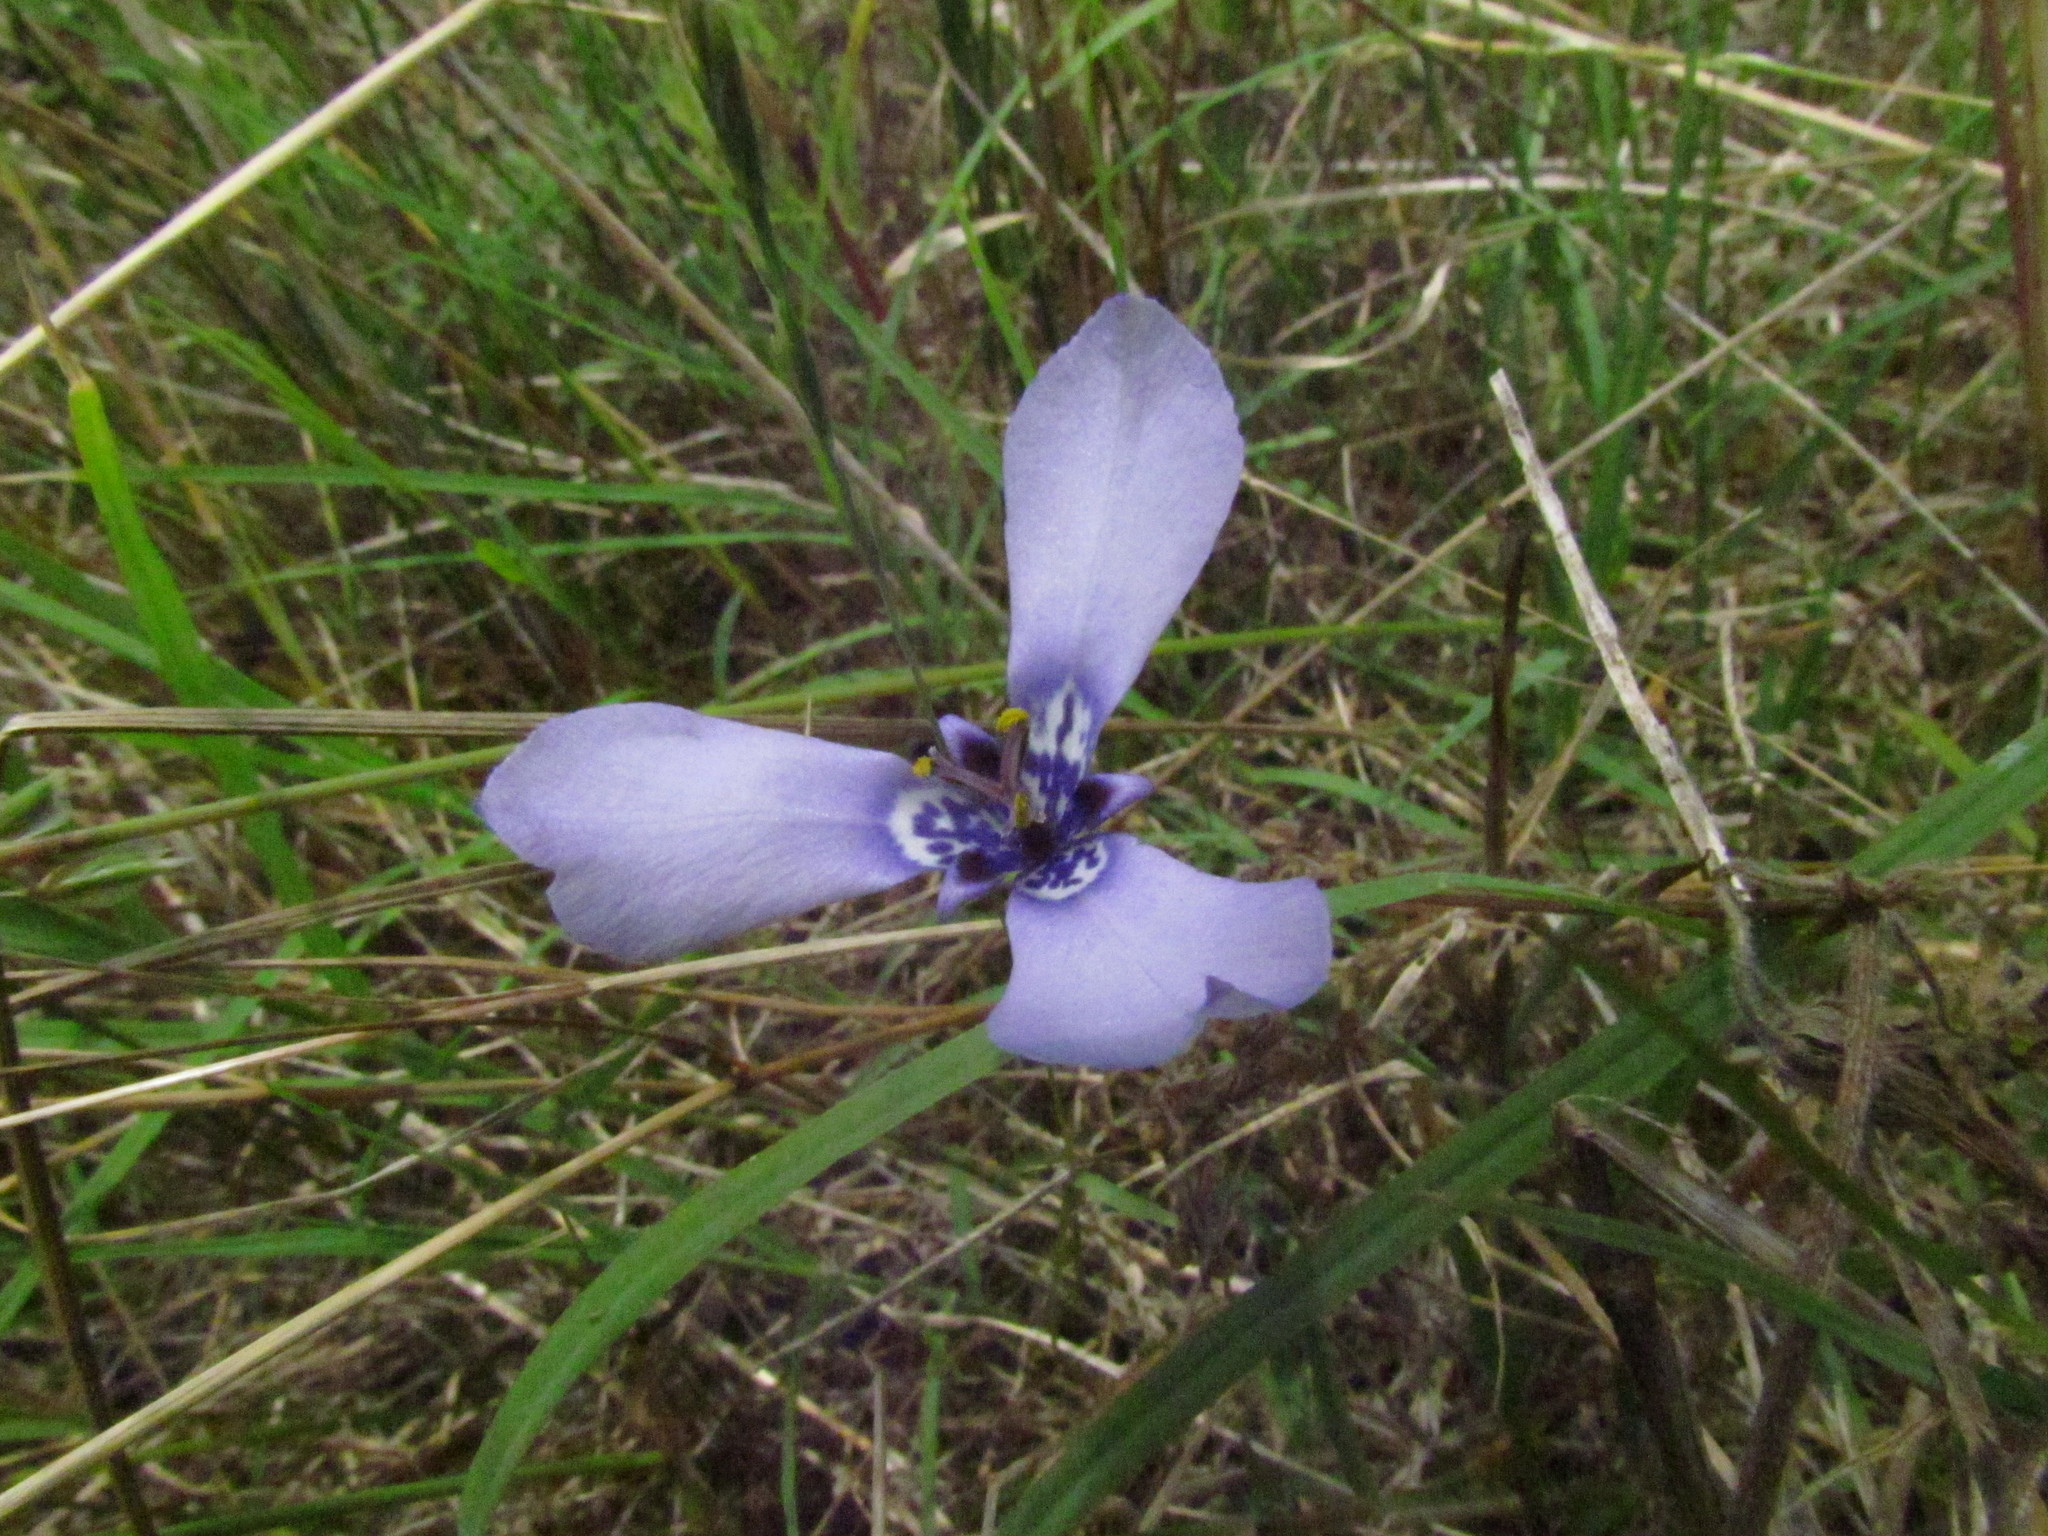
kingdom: Plantae
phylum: Tracheophyta
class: Liliopsida
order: Asparagales
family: Iridaceae
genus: Herbertia
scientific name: Herbertia lahue
